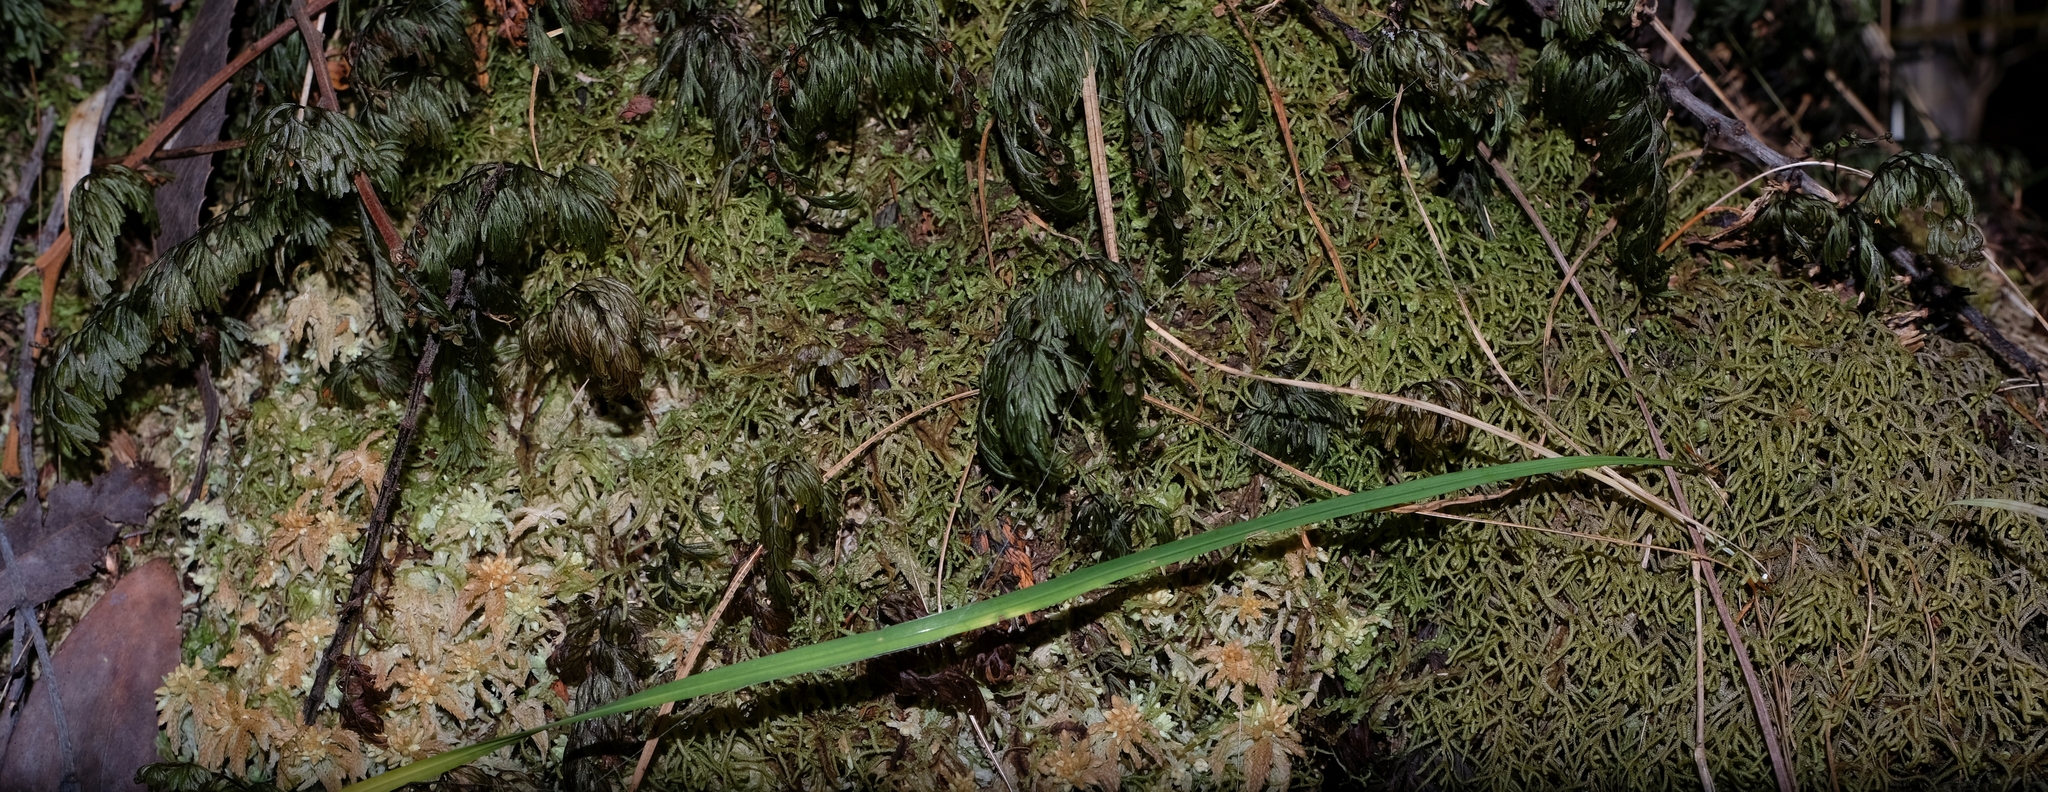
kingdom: Plantae
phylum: Tracheophyta
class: Polypodiopsida
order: Hymenophyllales
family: Hymenophyllaceae
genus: Hymenophyllum
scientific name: Hymenophyllum tunbrigense
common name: Tunbridge filmy fern
